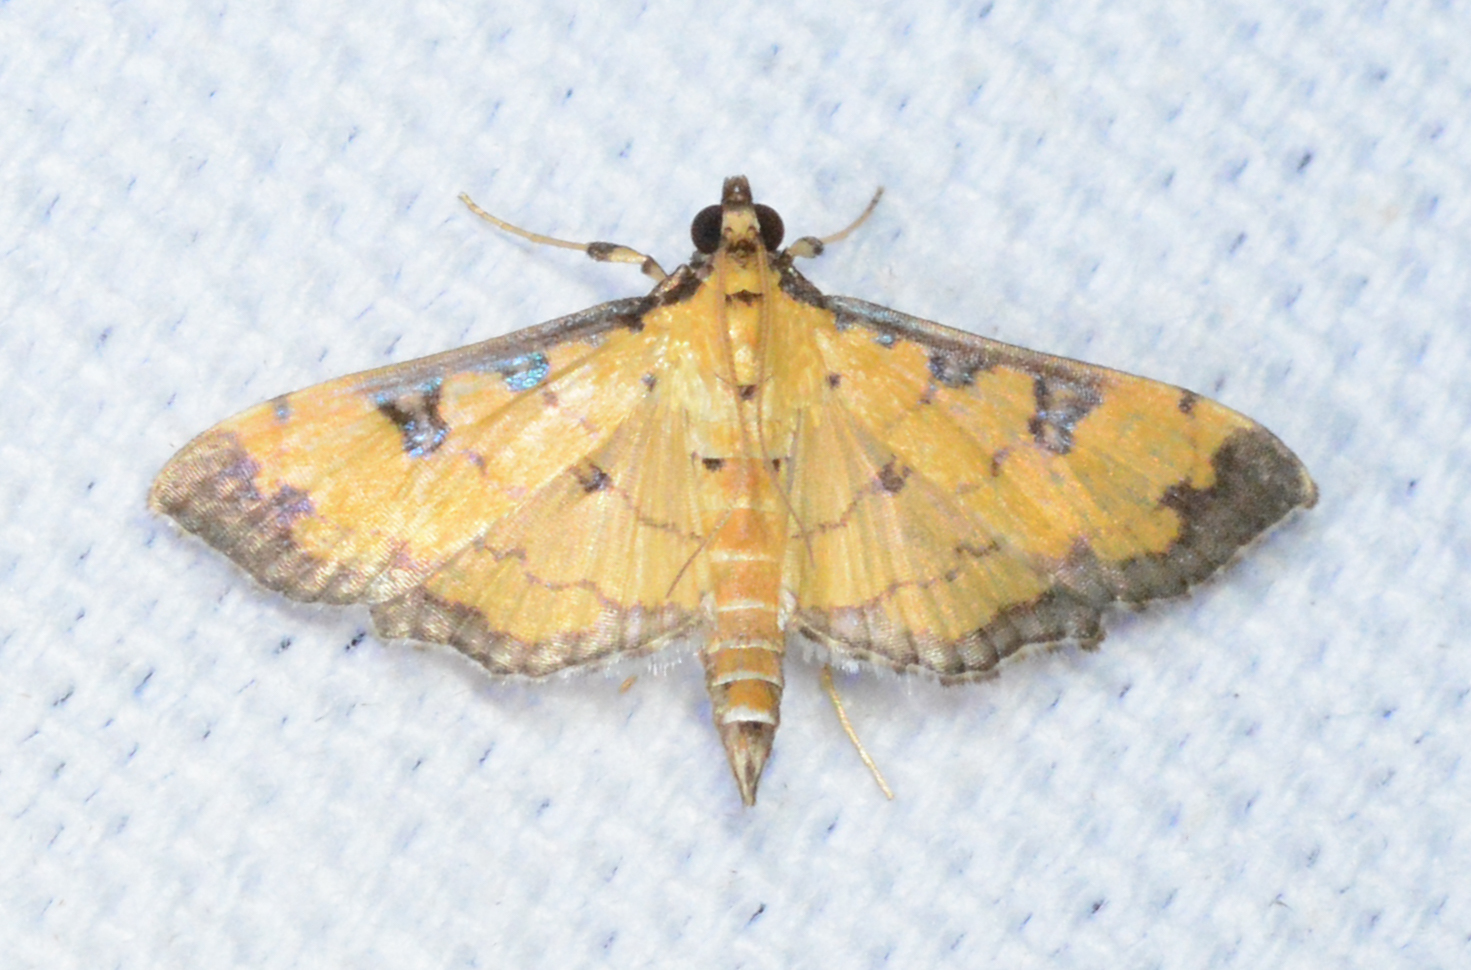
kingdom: Animalia
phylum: Arthropoda
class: Insecta
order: Lepidoptera
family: Crambidae
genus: Ategumia
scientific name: Ategumia ebulealis
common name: Moth
